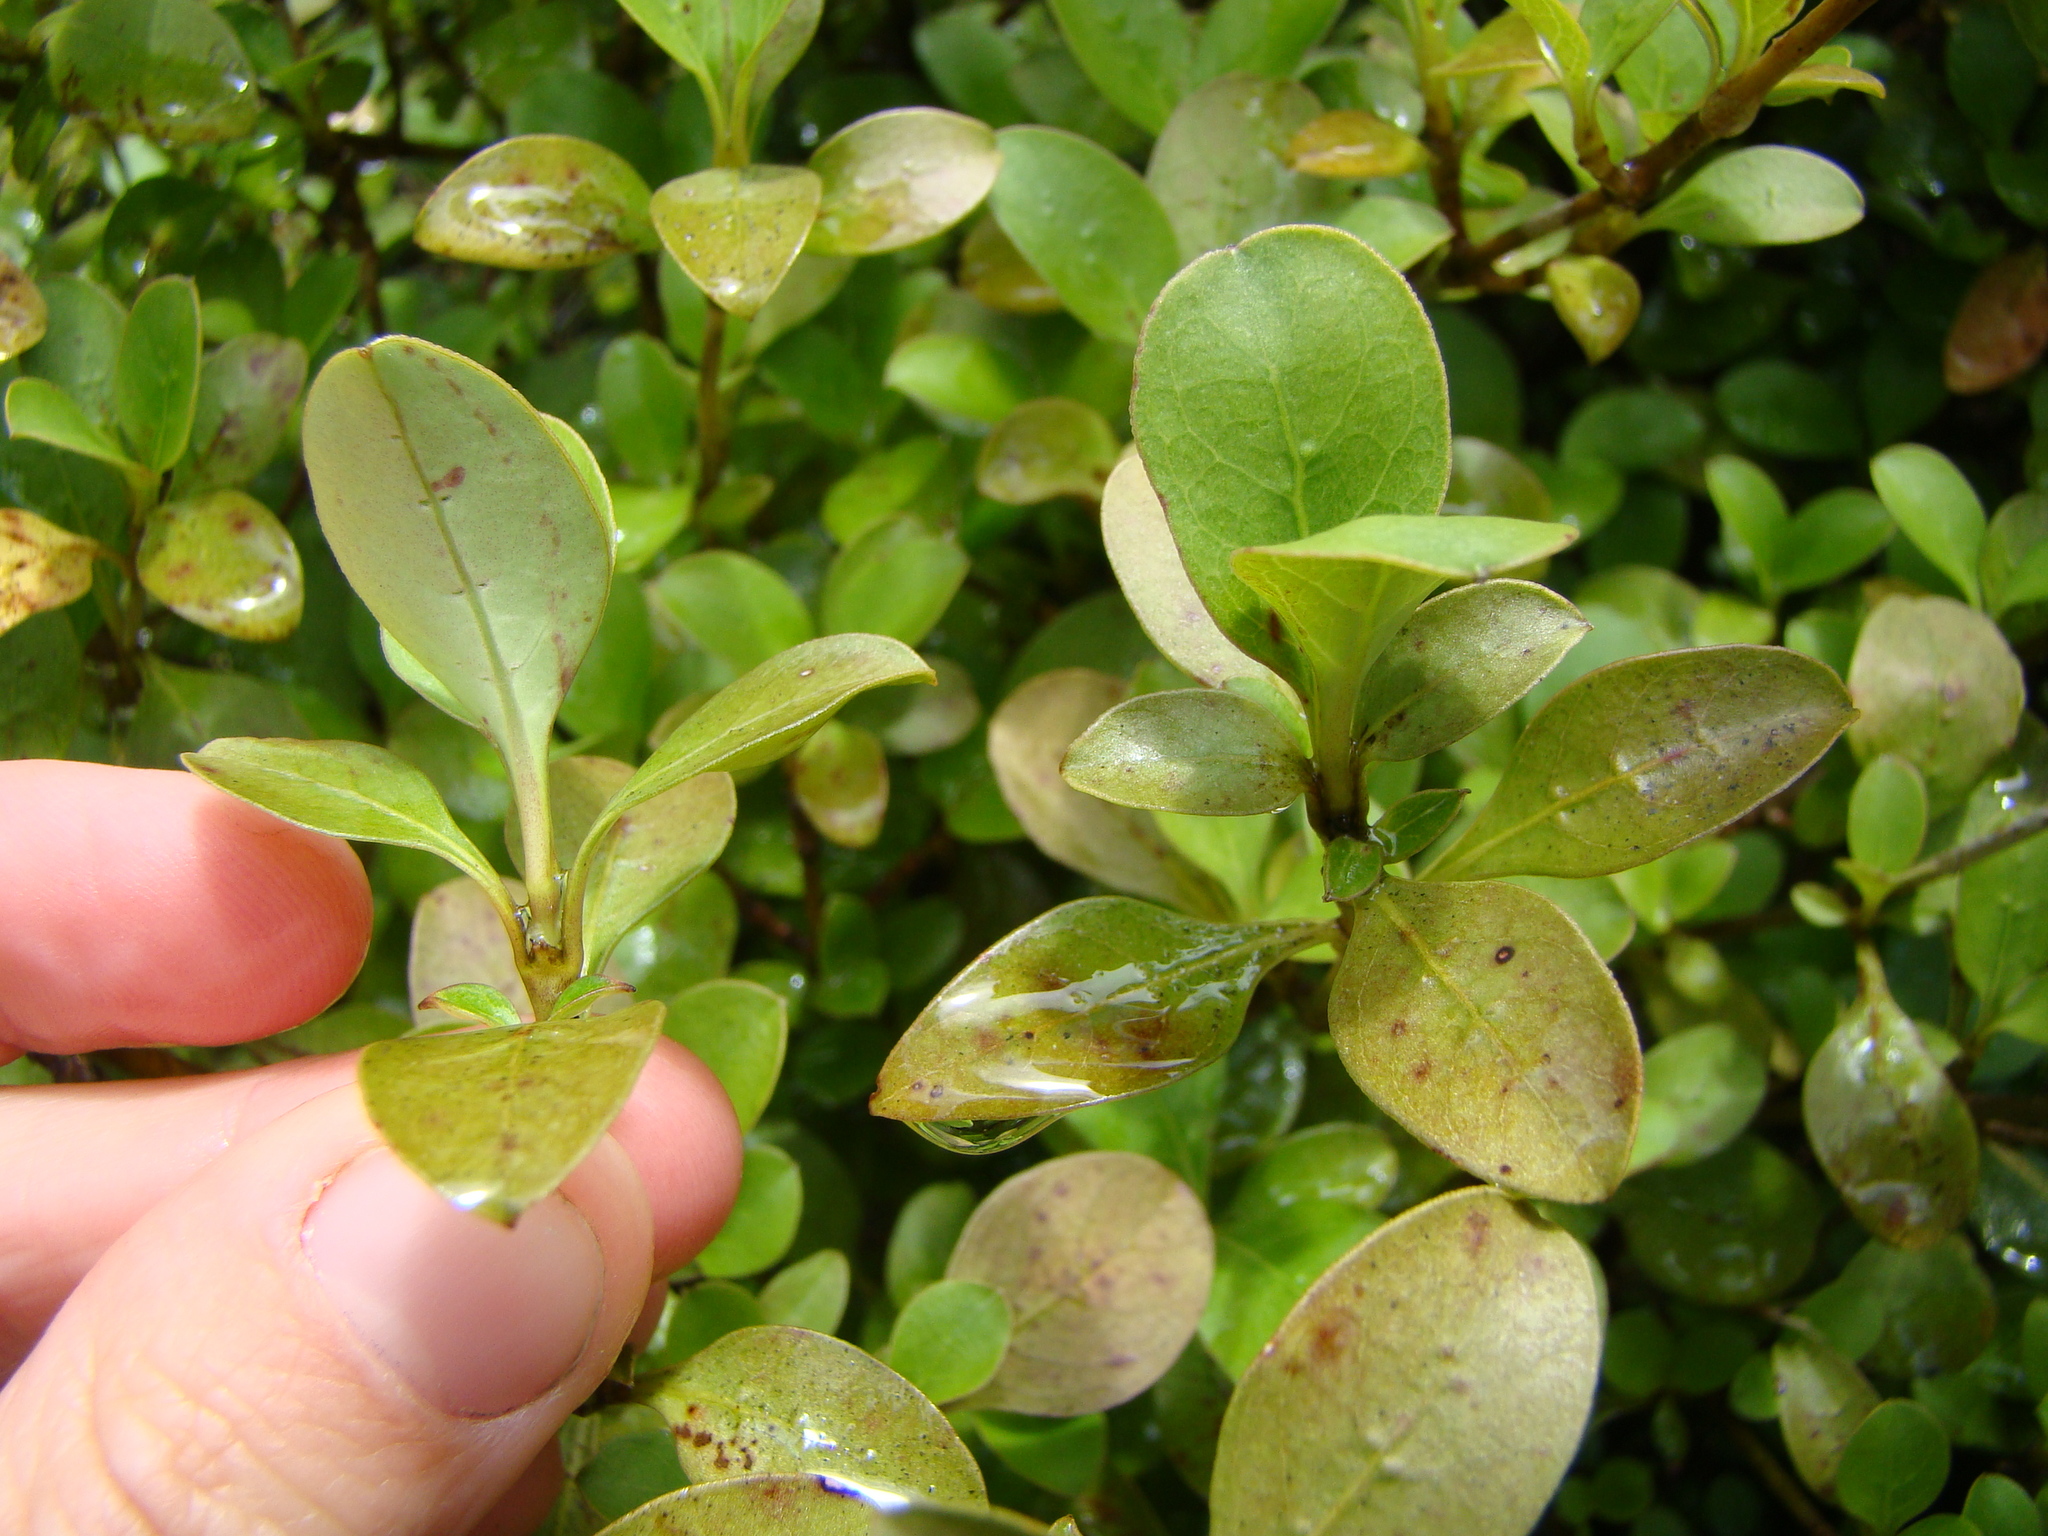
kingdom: Plantae
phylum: Tracheophyta
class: Magnoliopsida
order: Gentianales
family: Rubiaceae
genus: Coprosma
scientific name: Coprosma foetidissima
